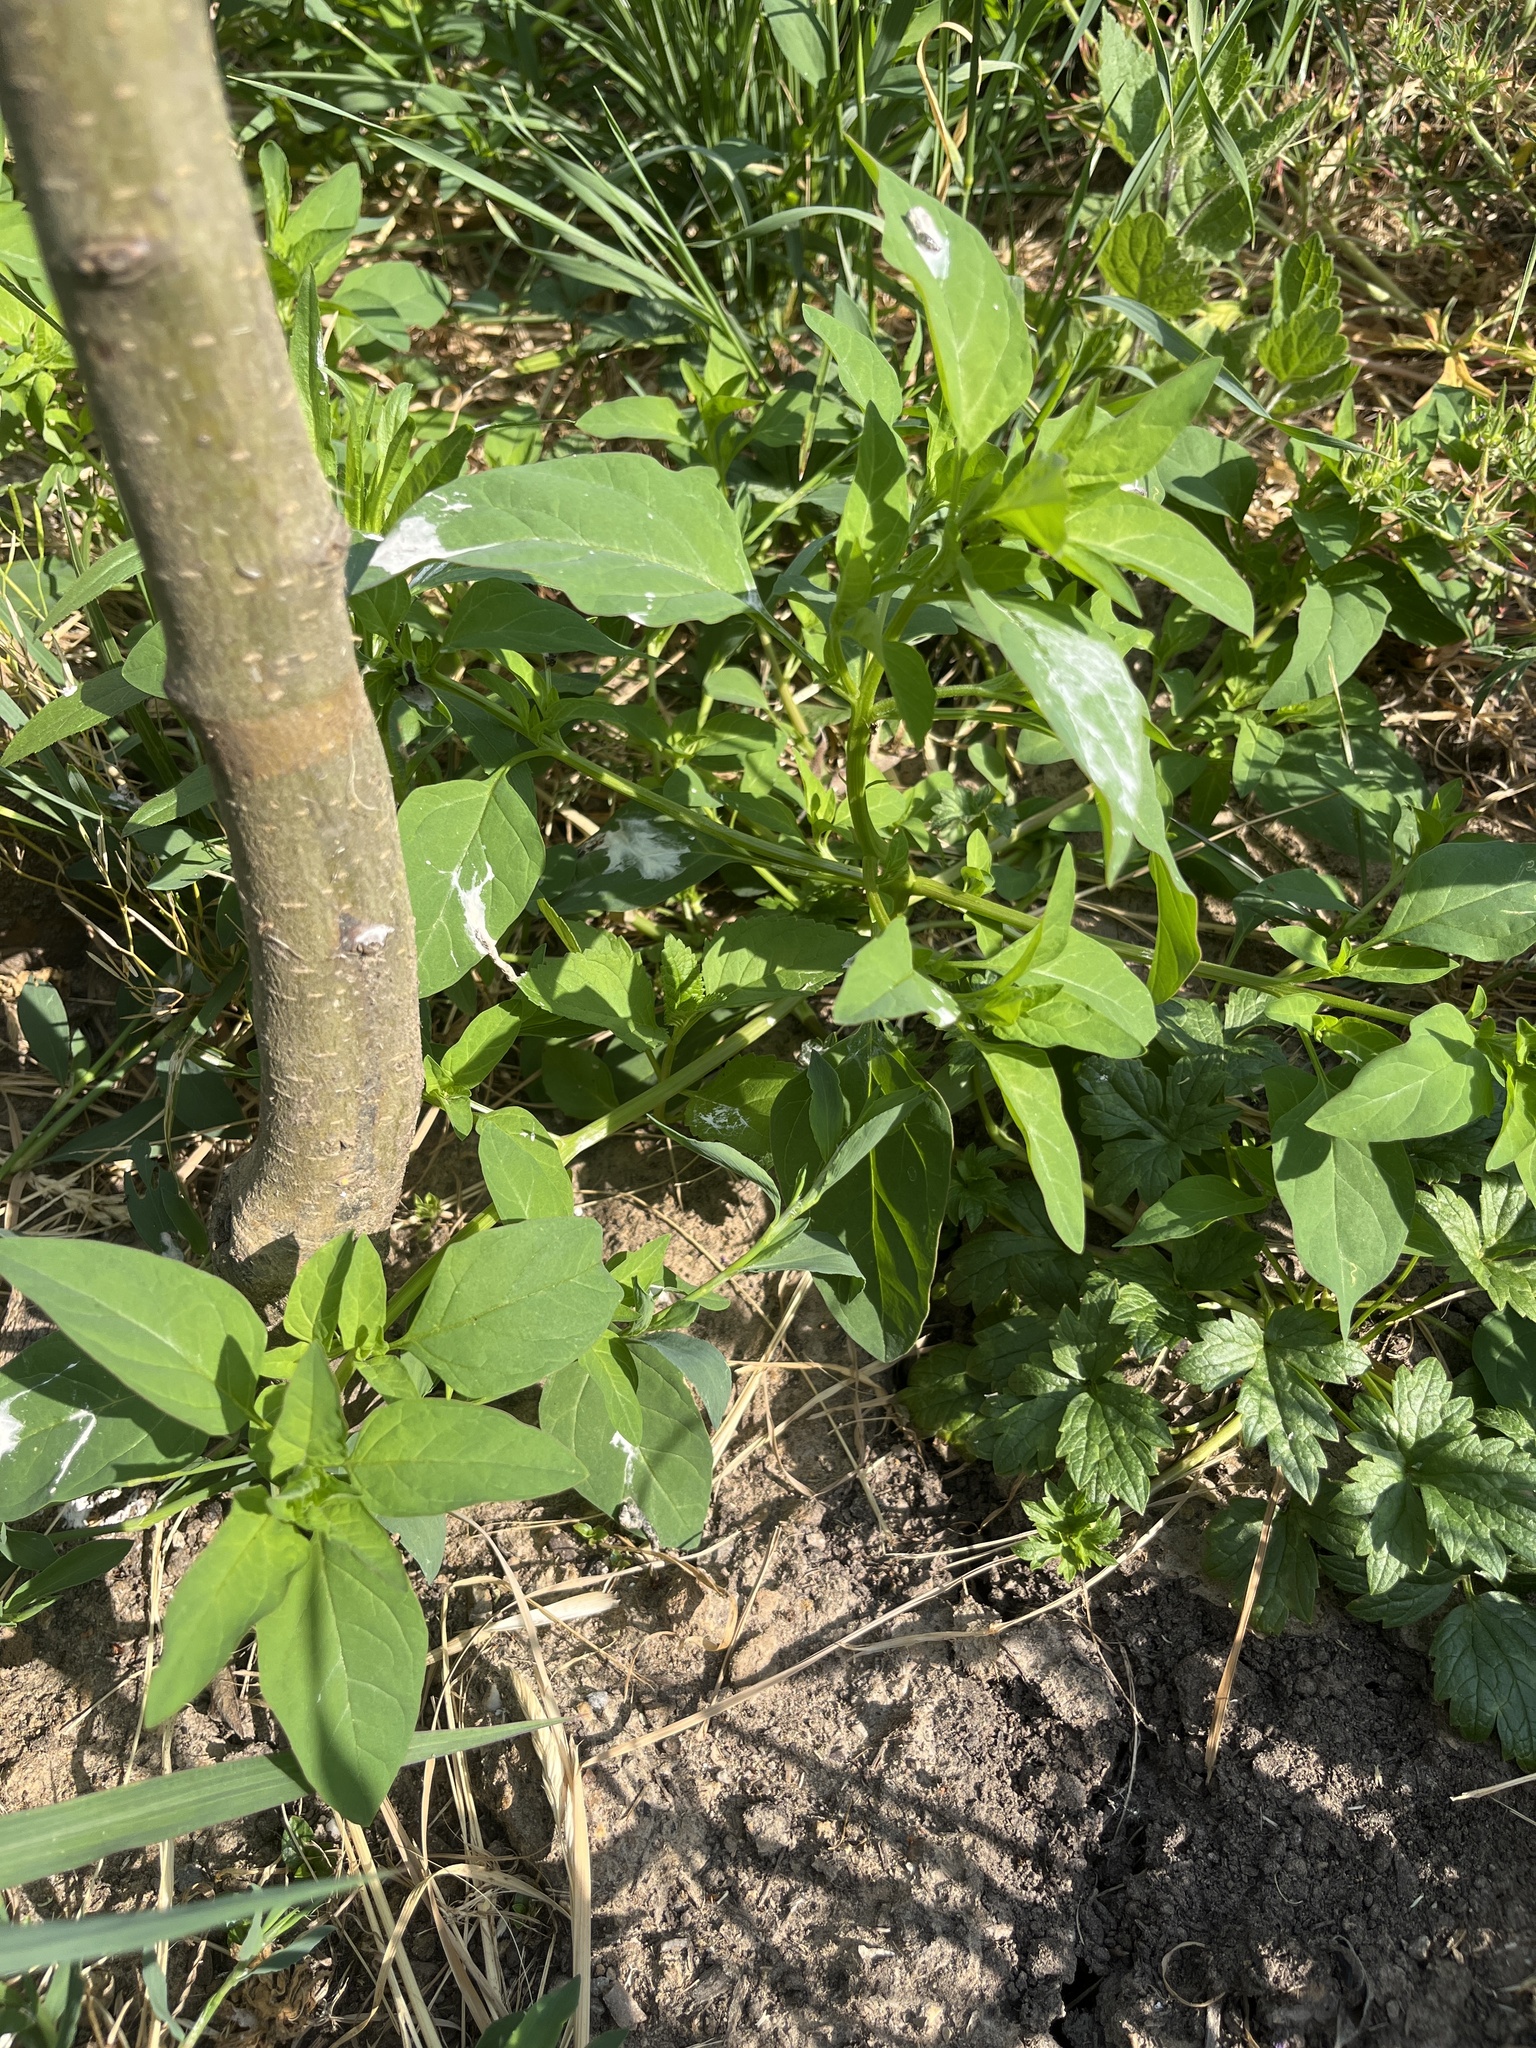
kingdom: Plantae
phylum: Tracheophyta
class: Magnoliopsida
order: Caryophyllales
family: Amaranthaceae
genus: Lipandra
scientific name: Lipandra polysperma
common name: Many-seed goosefoot
